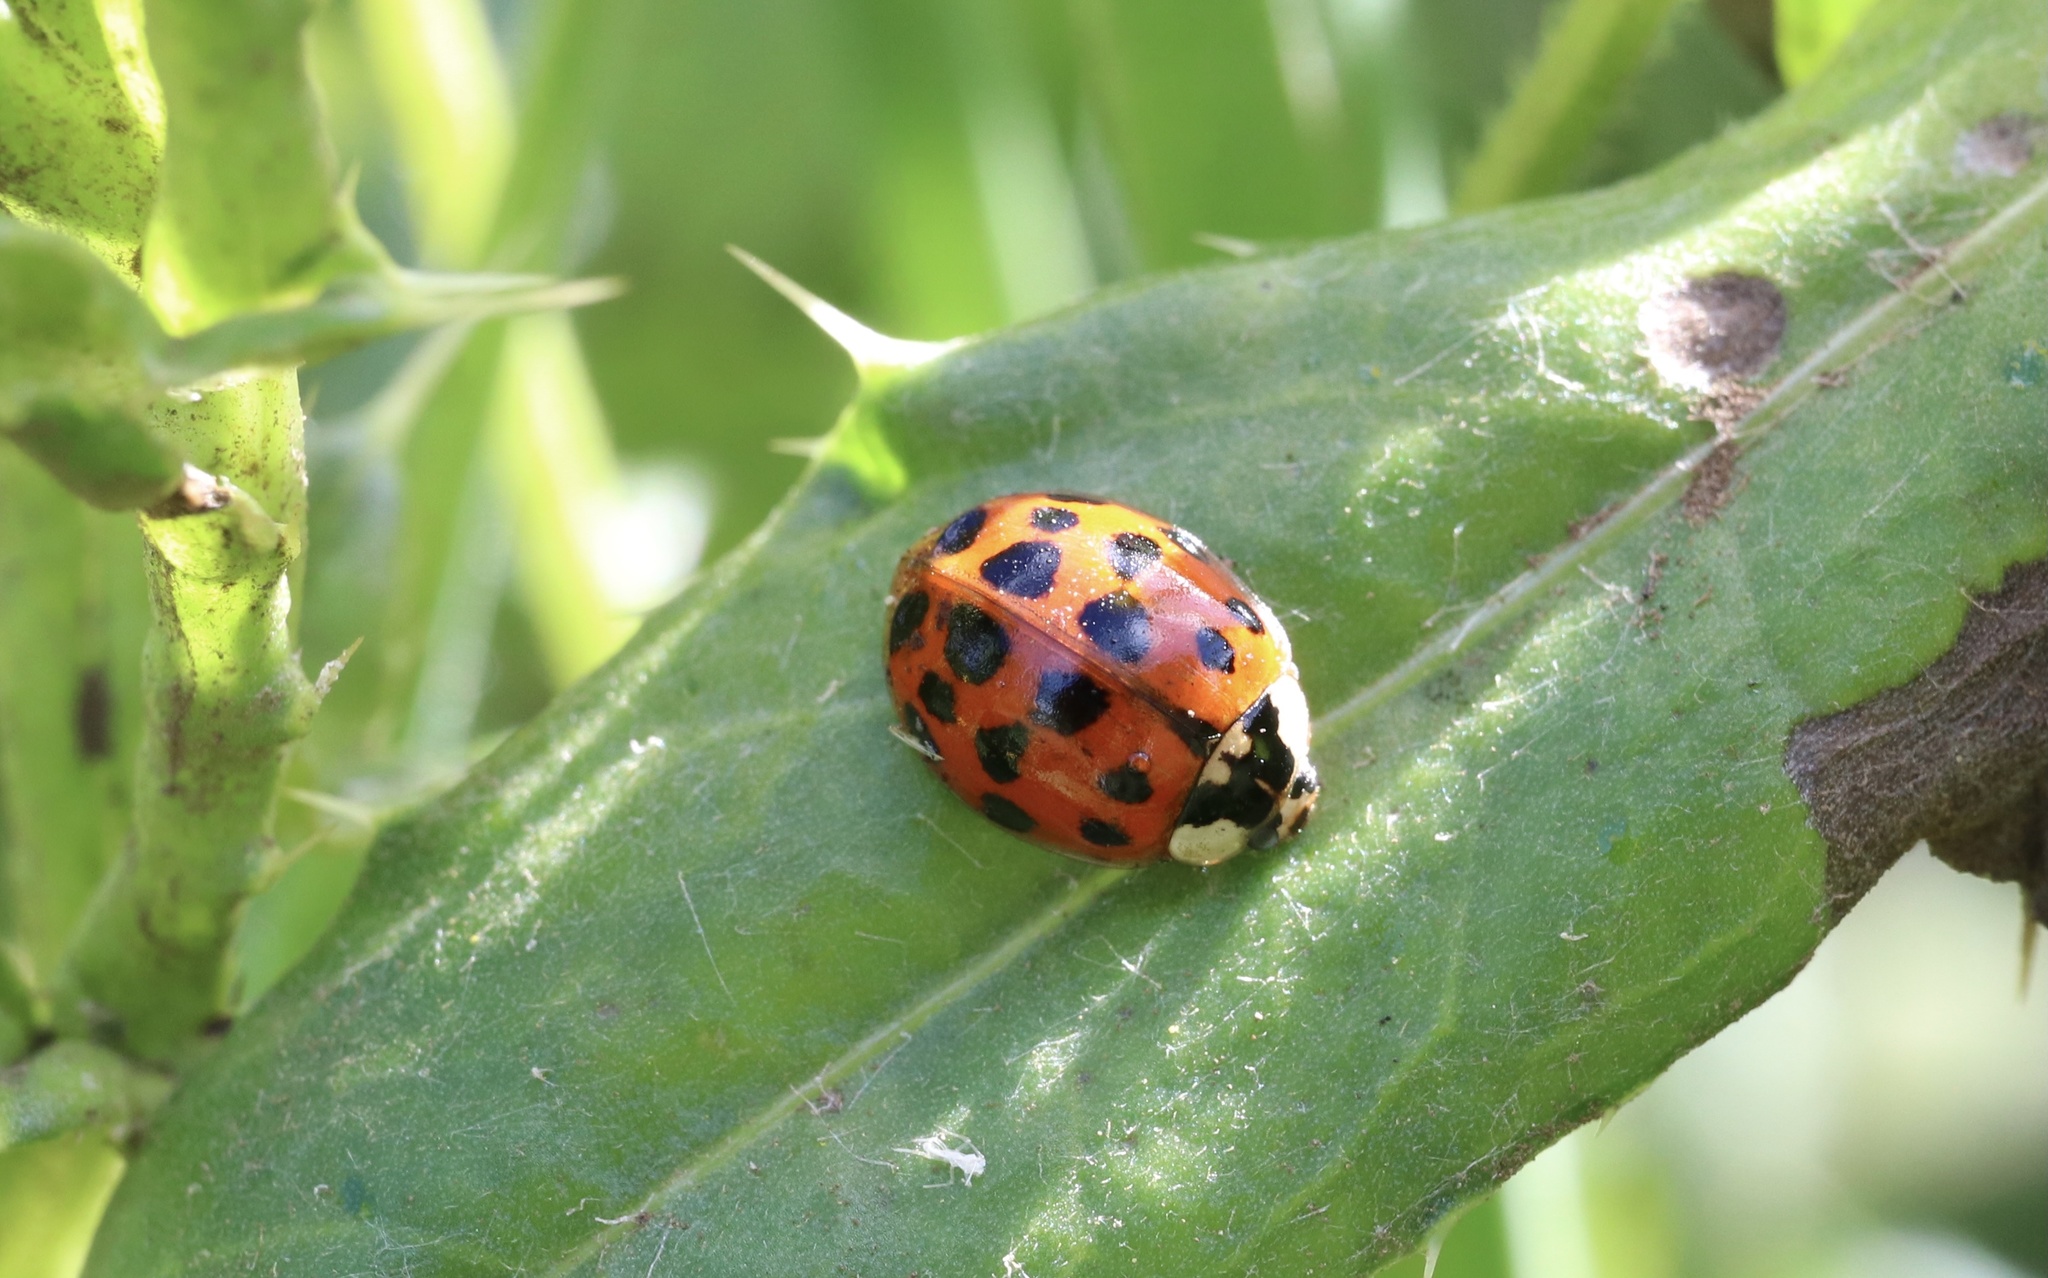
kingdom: Animalia
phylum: Arthropoda
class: Insecta
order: Coleoptera
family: Coccinellidae
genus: Harmonia
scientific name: Harmonia axyridis
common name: Harlequin ladybird
